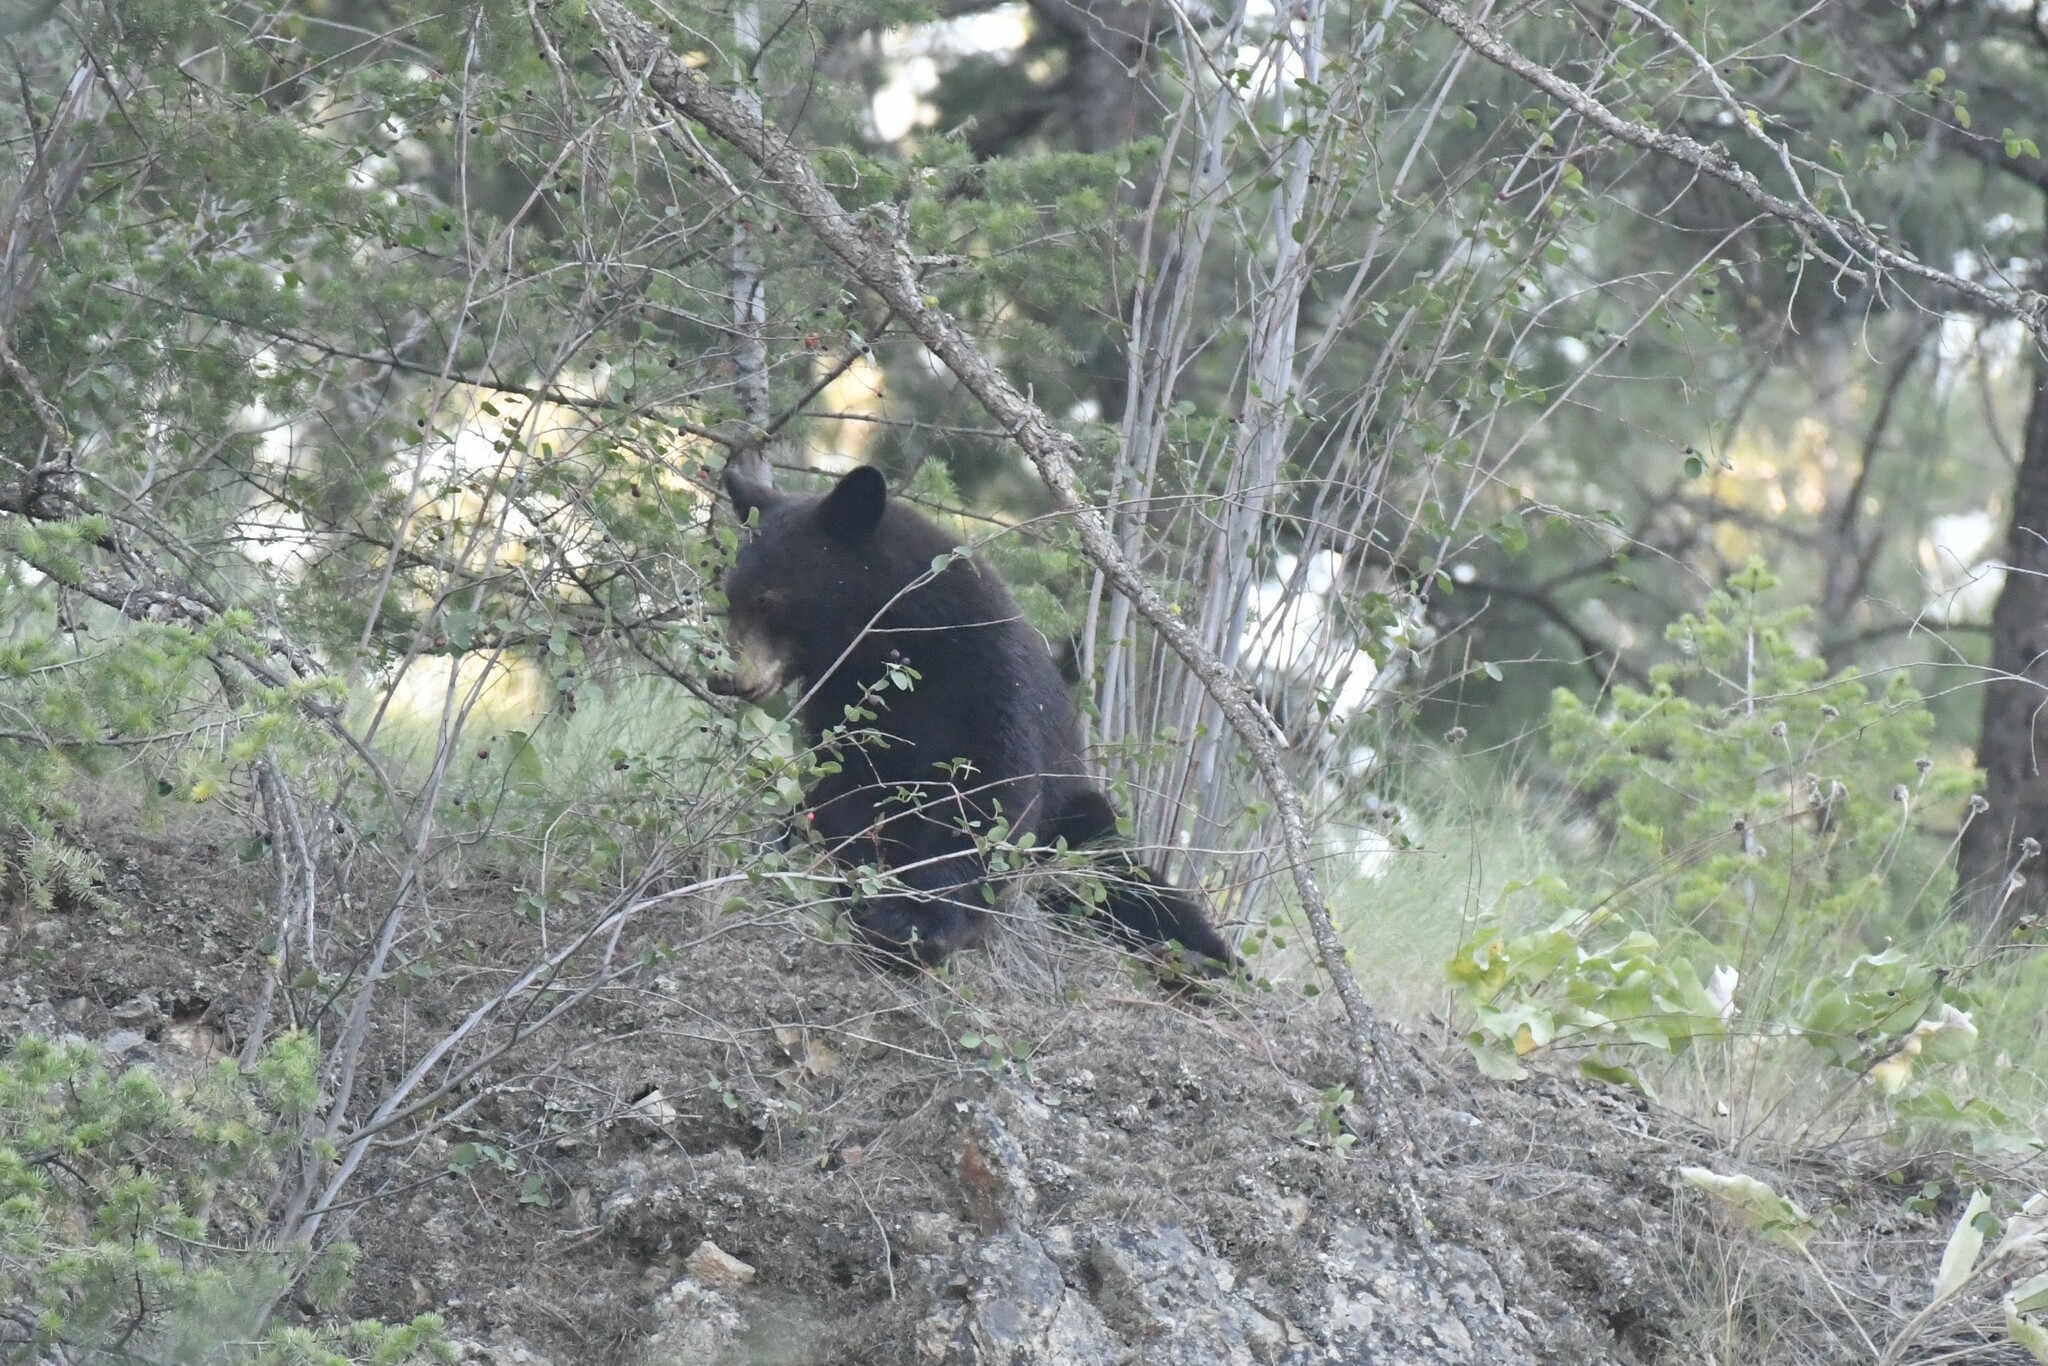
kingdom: Animalia
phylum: Chordata
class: Mammalia
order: Carnivora
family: Ursidae
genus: Ursus
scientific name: Ursus americanus
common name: American black bear
